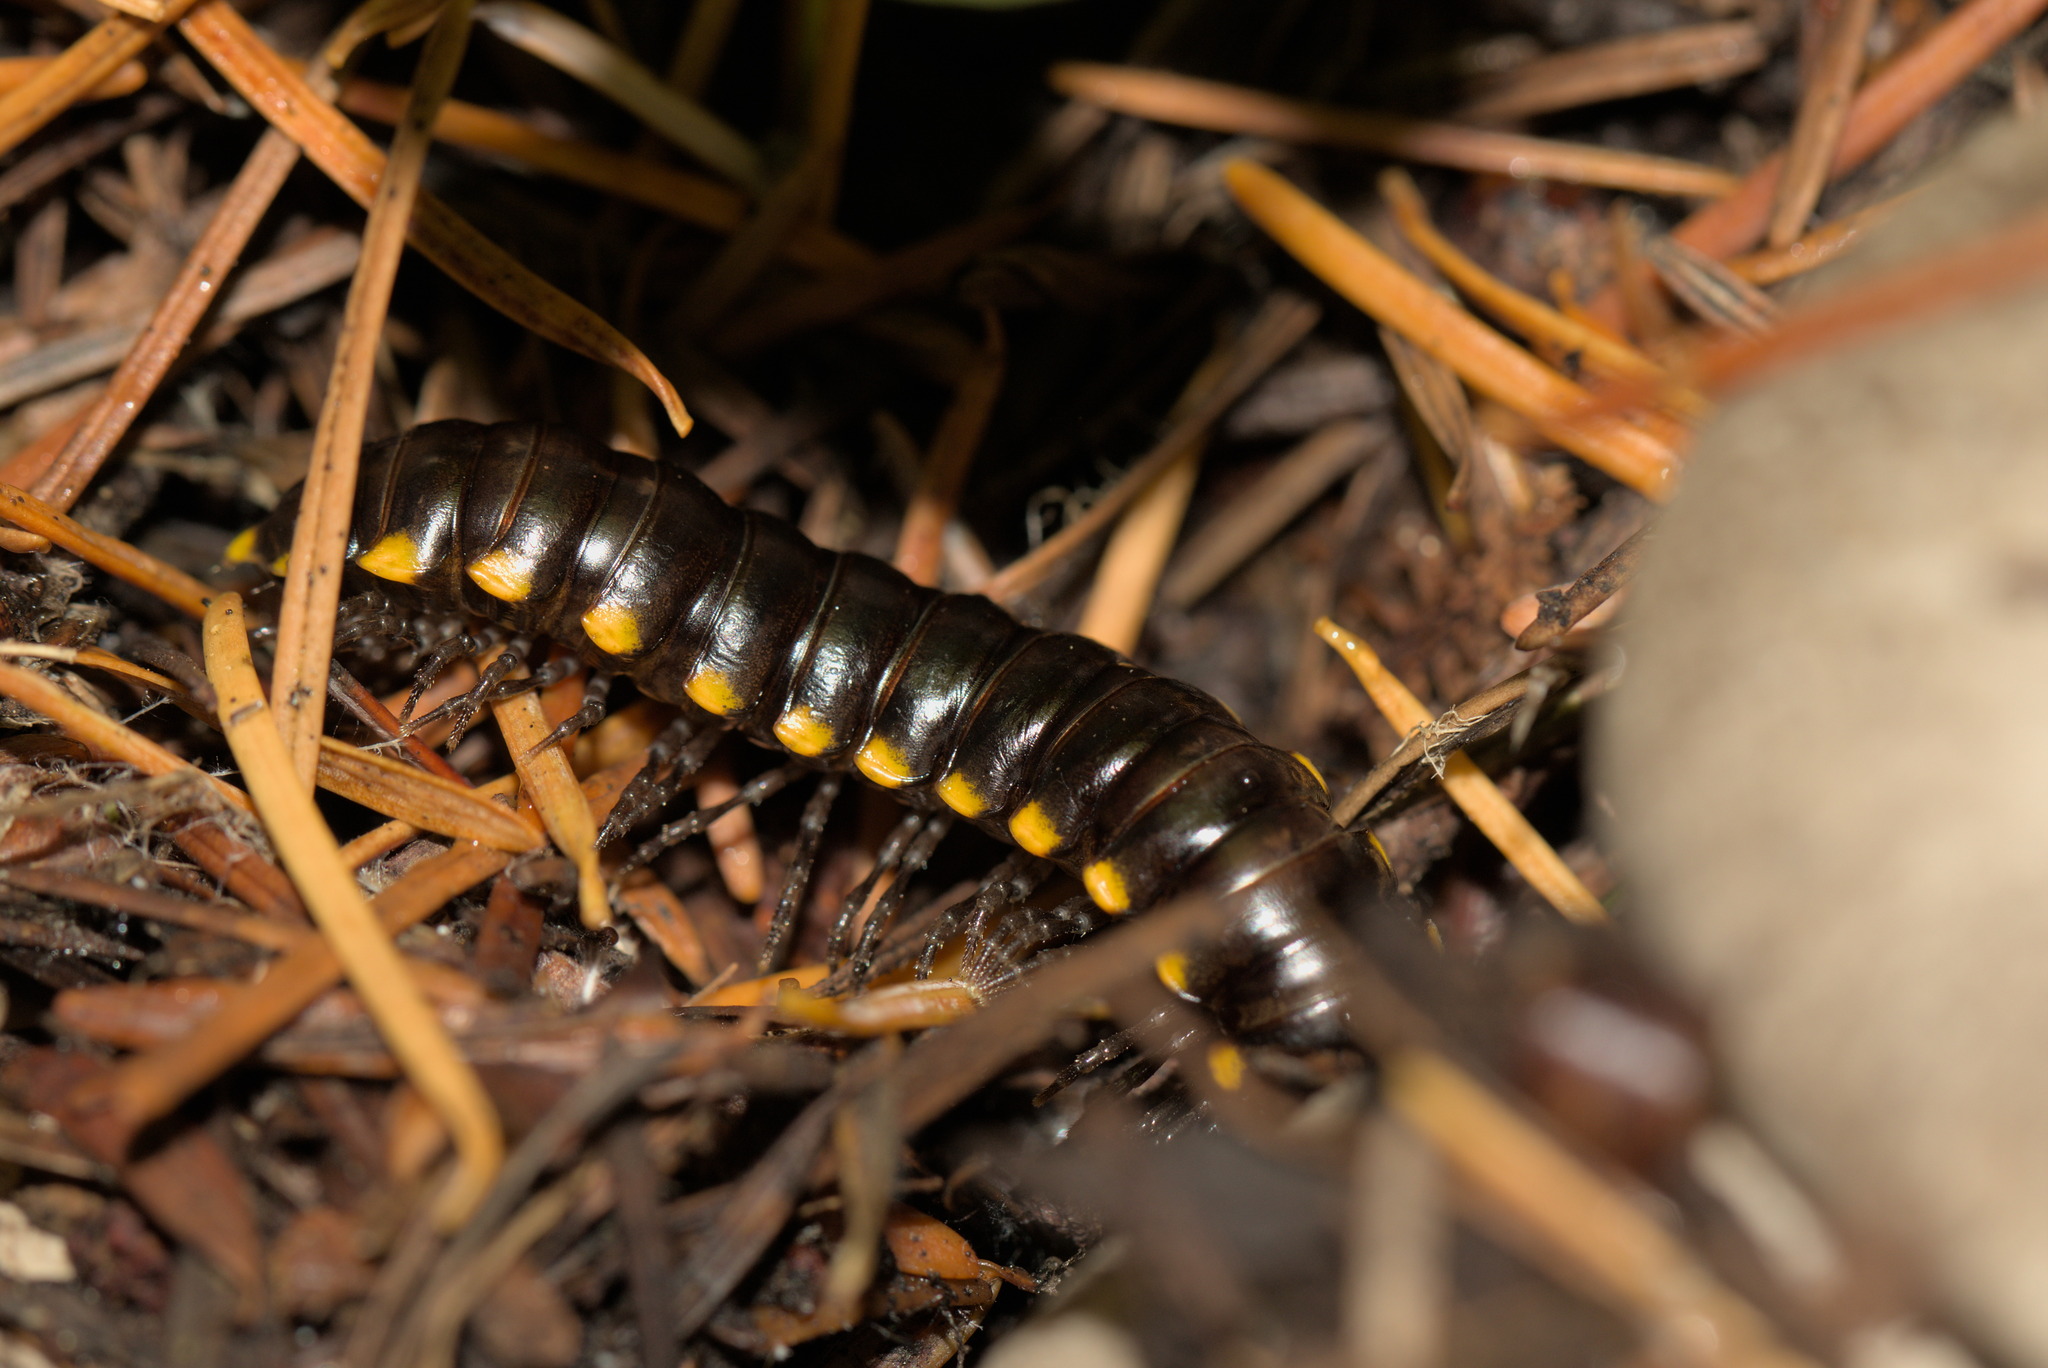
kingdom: Animalia
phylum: Arthropoda
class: Diplopoda
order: Polydesmida
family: Xystodesmidae
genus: Harpaphe
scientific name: Harpaphe haydeniana
